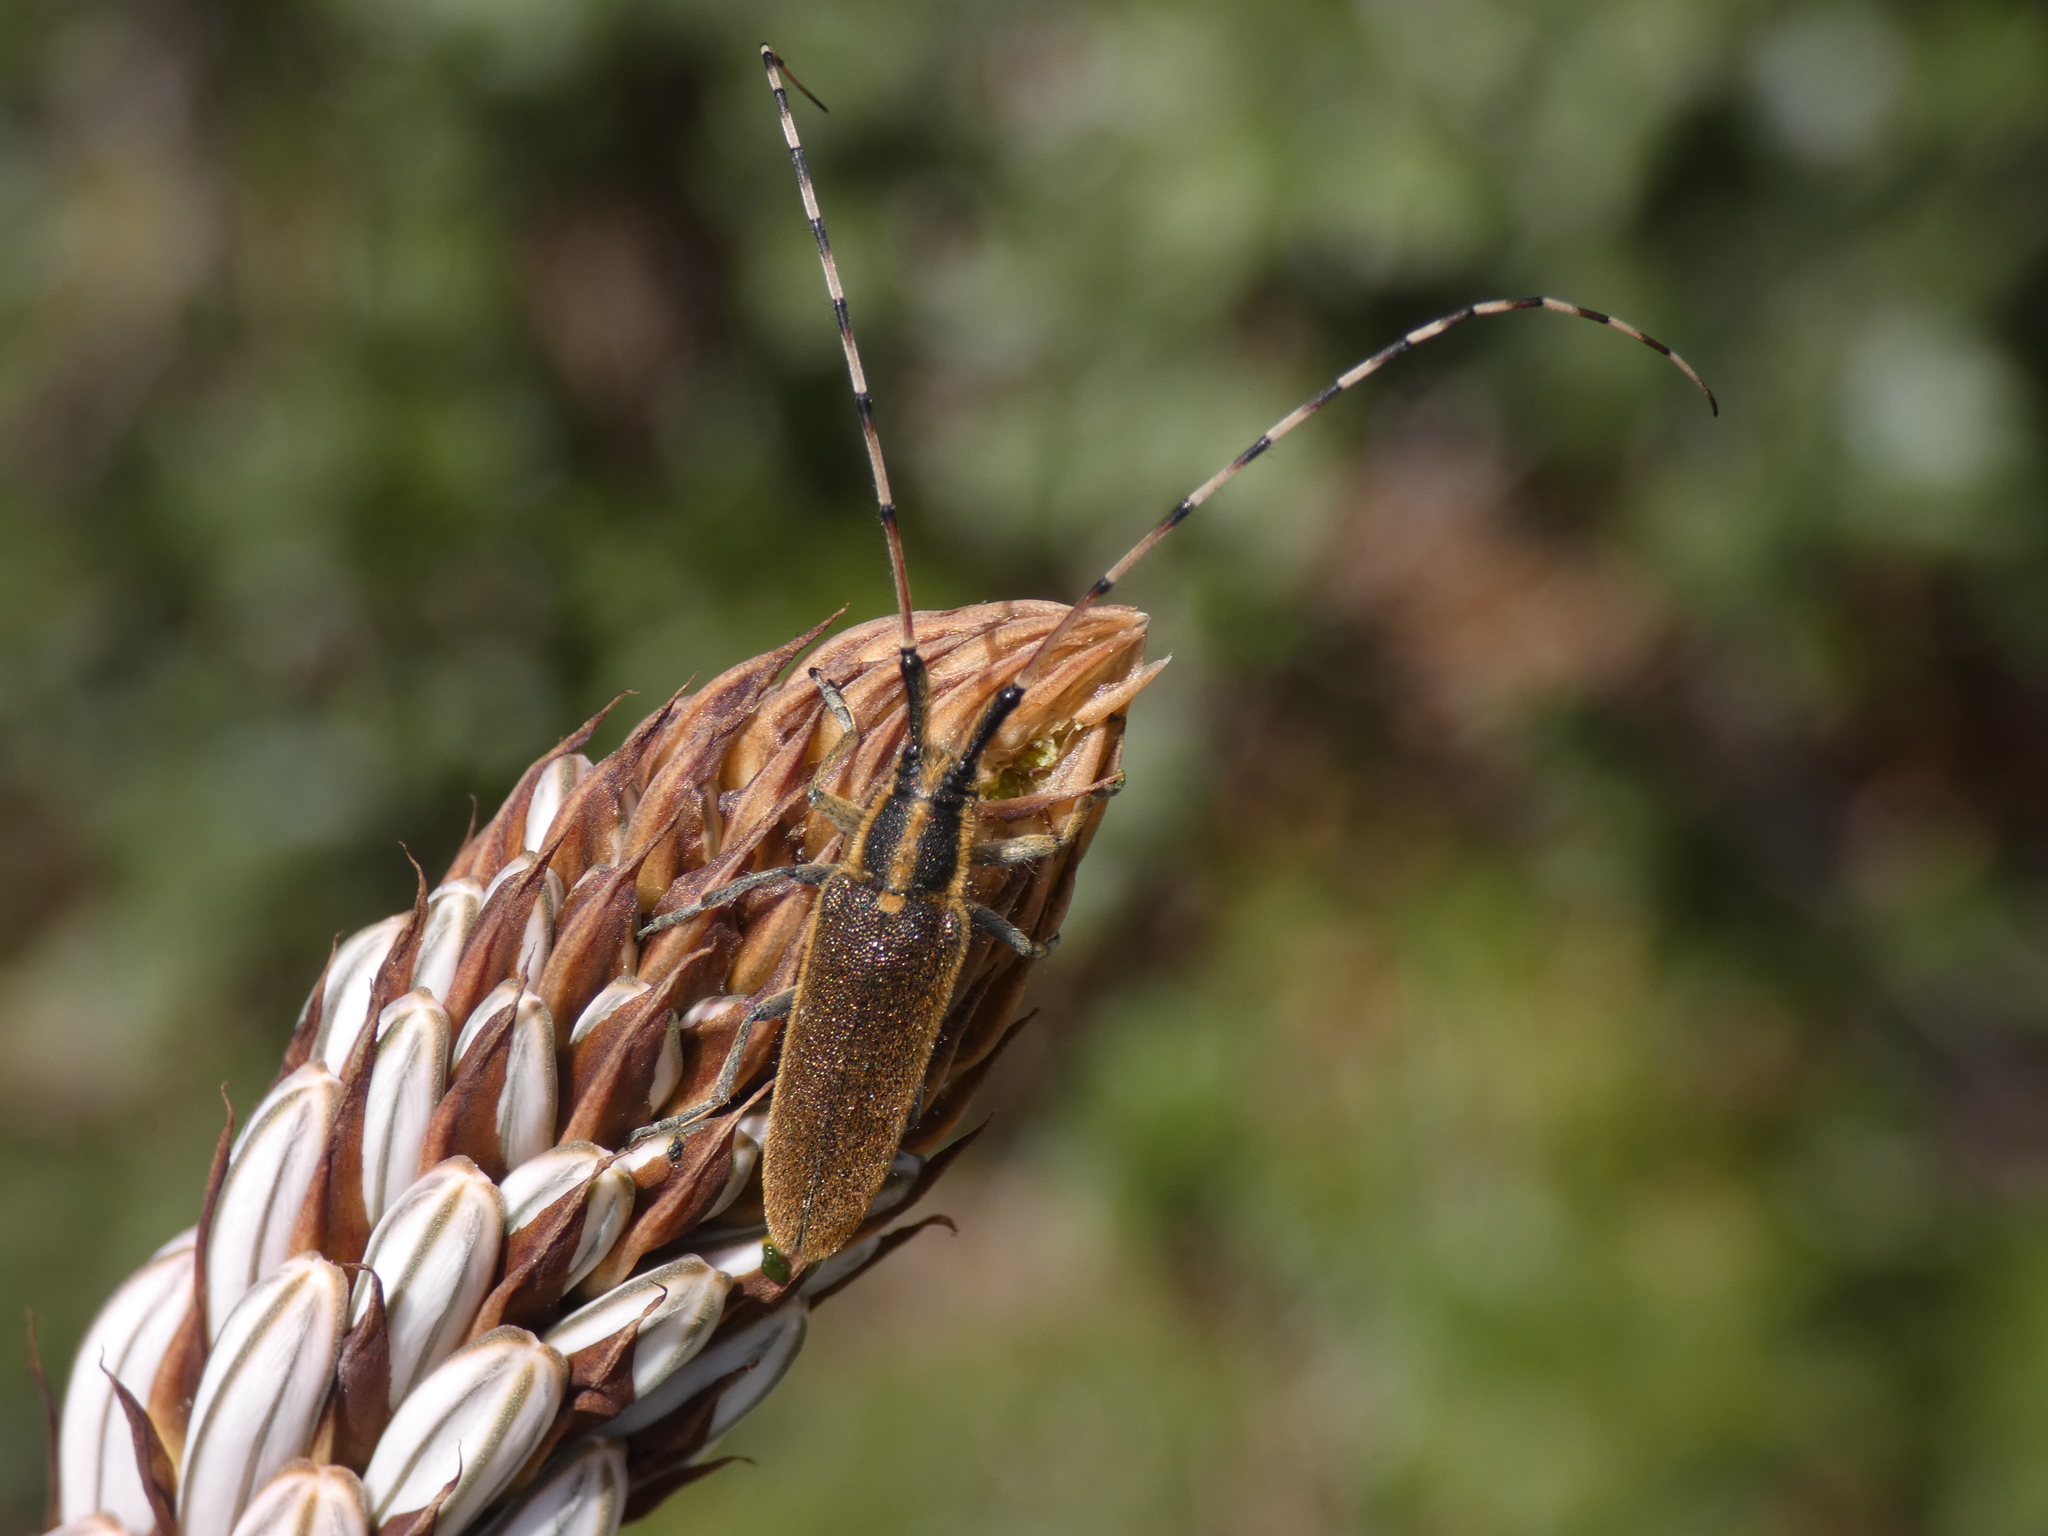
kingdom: Animalia
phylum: Arthropoda
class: Insecta
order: Coleoptera
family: Cerambycidae
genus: Agapanthia
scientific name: Agapanthia asphodeli
